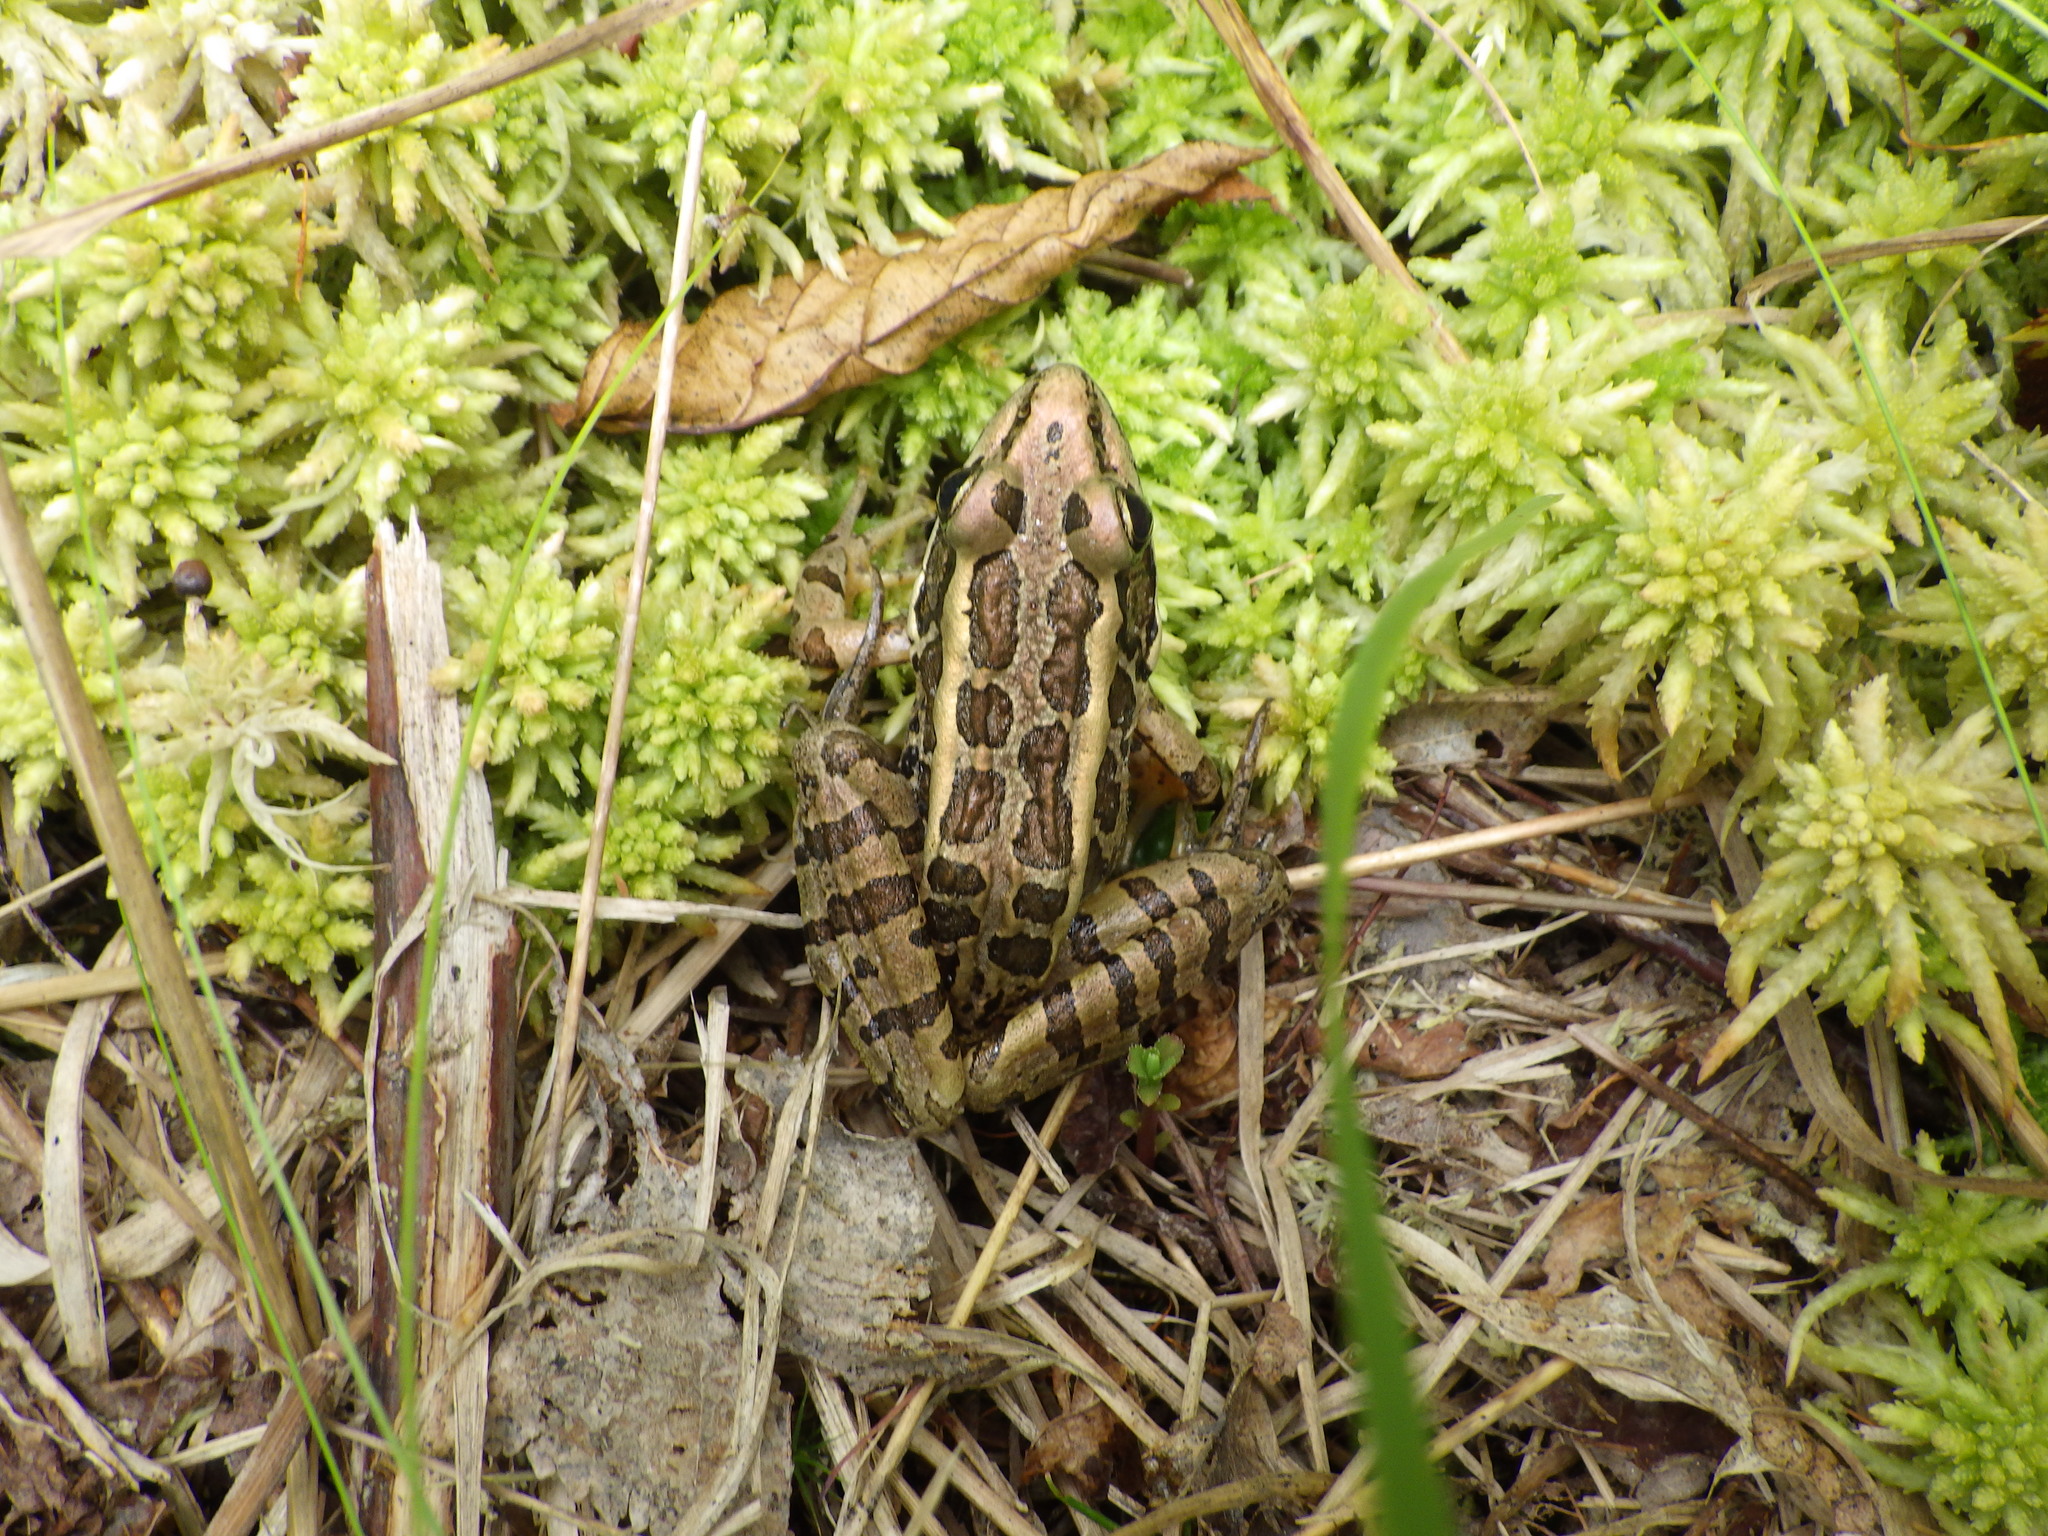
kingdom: Animalia
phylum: Chordata
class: Amphibia
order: Anura
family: Ranidae
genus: Lithobates
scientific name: Lithobates palustris
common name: Pickerel frog
